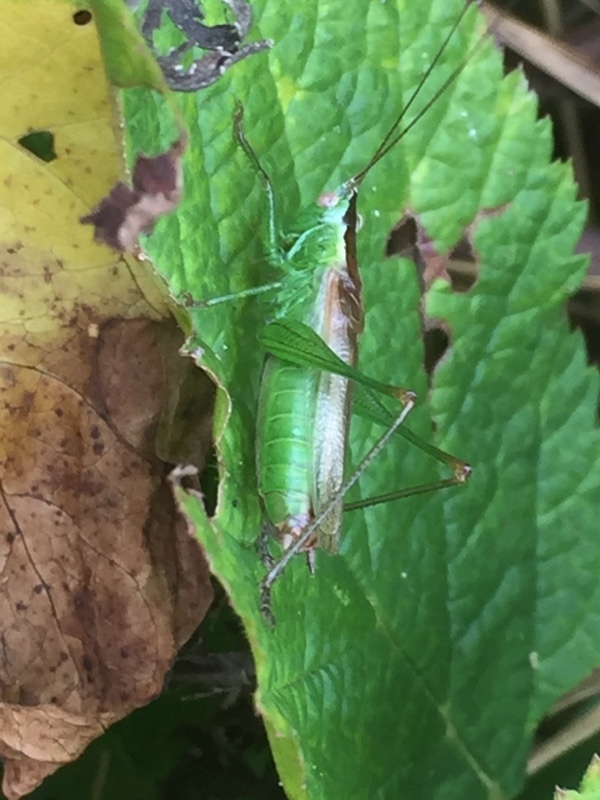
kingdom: Animalia
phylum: Arthropoda
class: Insecta
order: Orthoptera
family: Tettigoniidae
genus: Conocephalus
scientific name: Conocephalus fuscus
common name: Long-winged conehead
